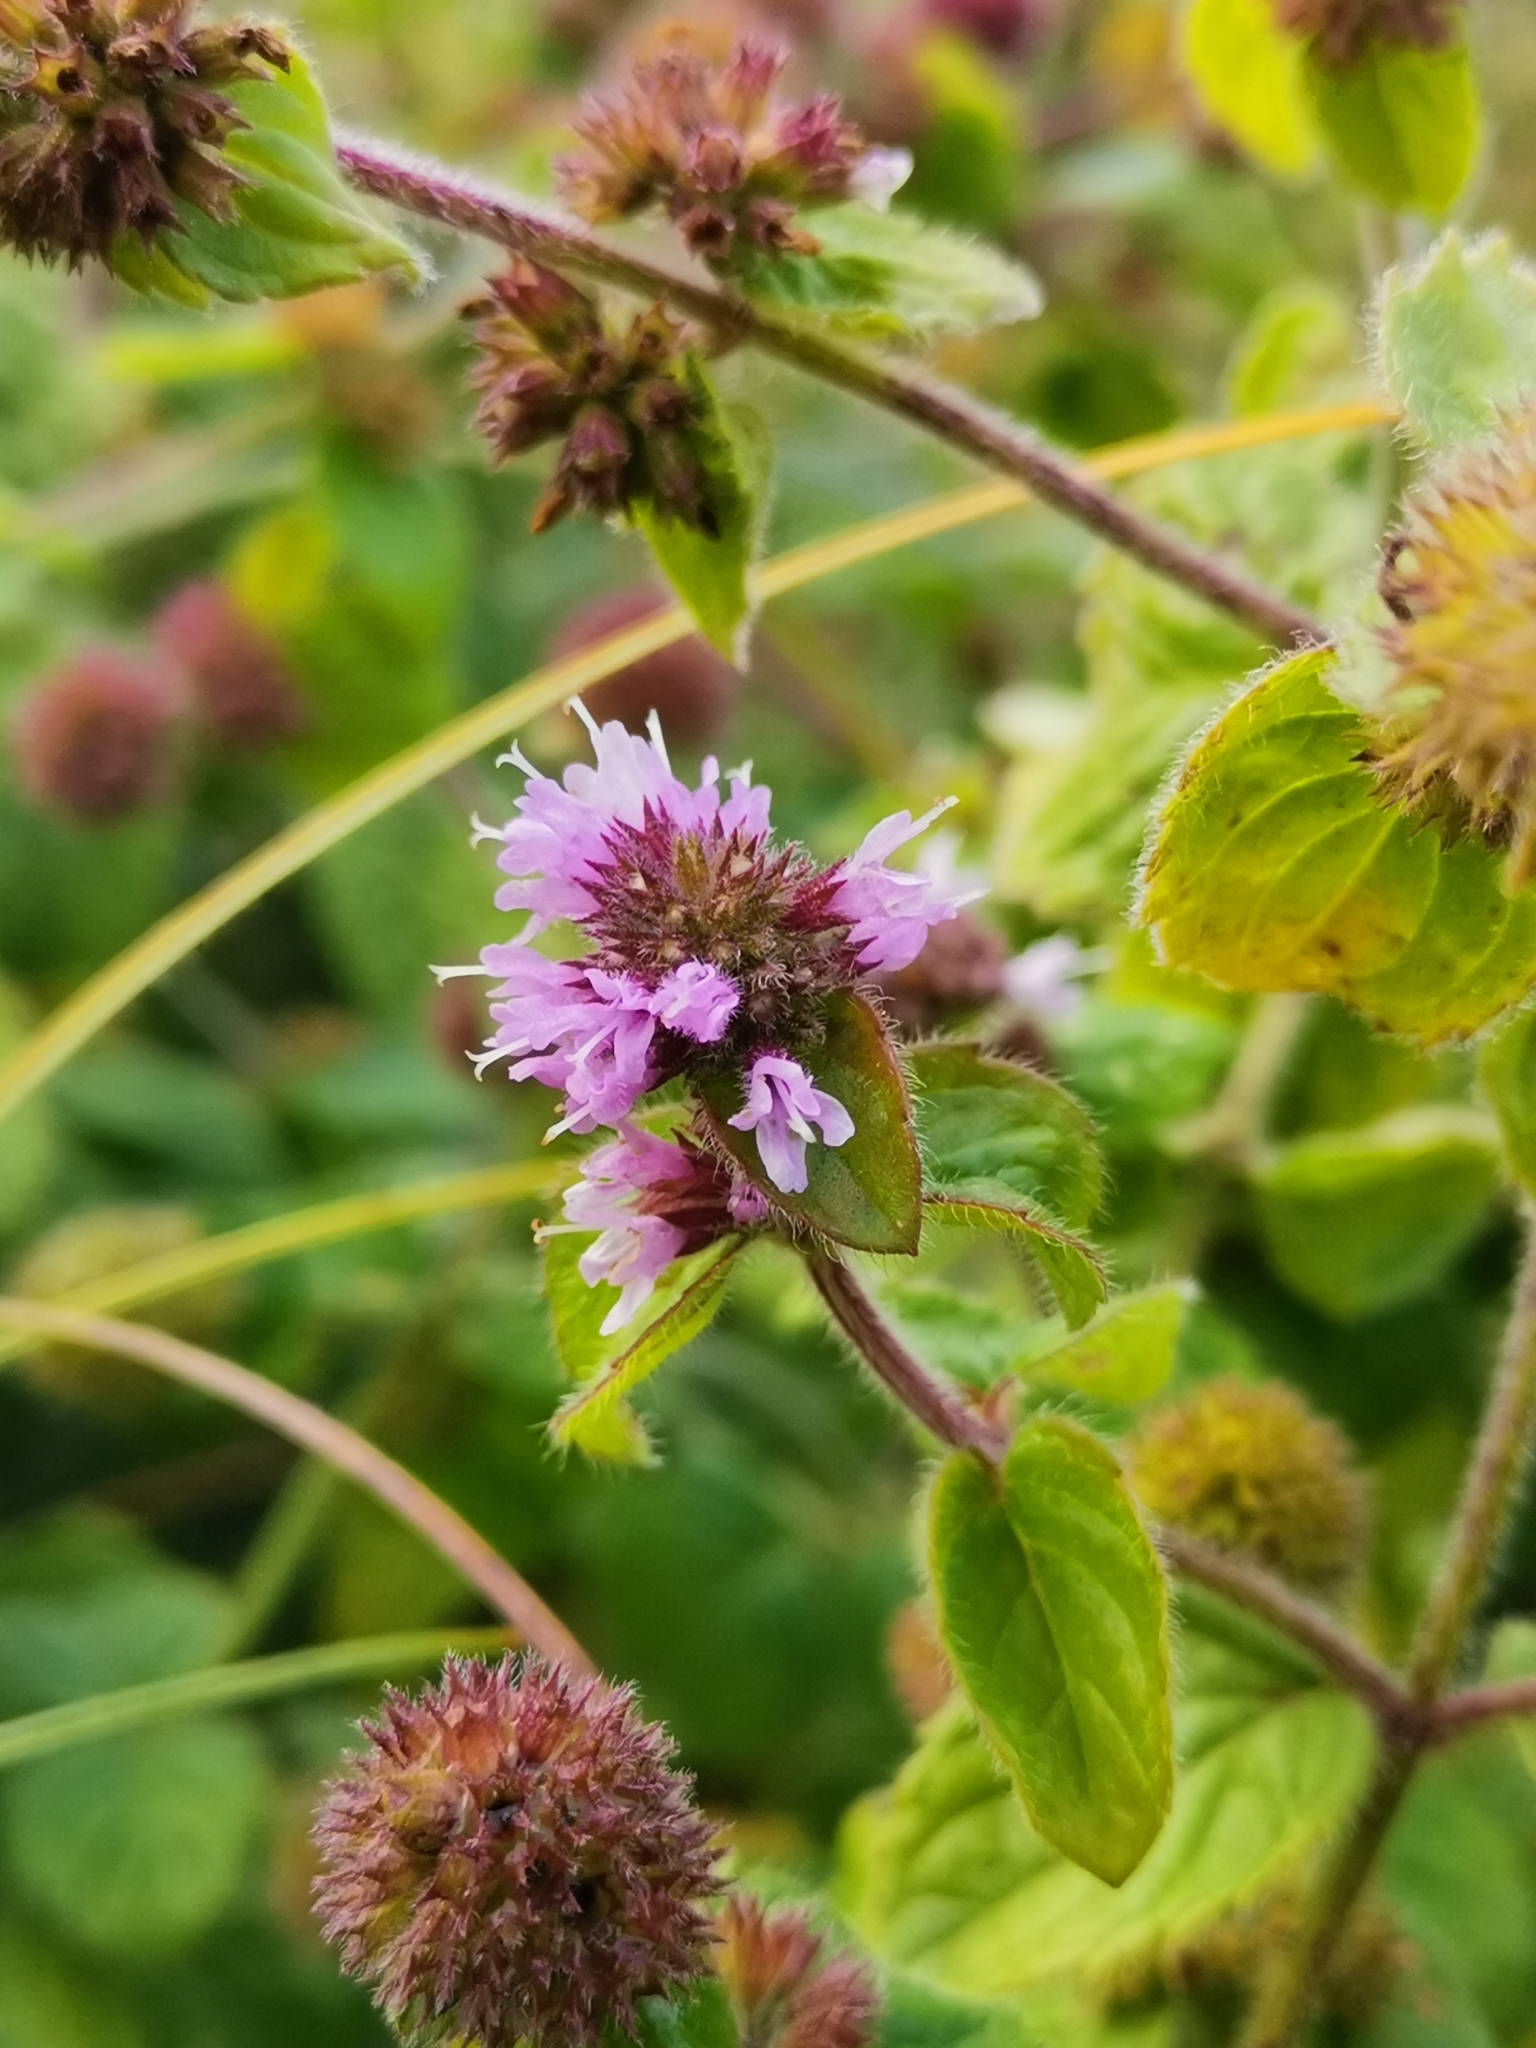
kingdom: Plantae
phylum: Tracheophyta
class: Magnoliopsida
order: Lamiales
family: Lamiaceae
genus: Mentha
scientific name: Mentha aquatica
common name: Water mint
